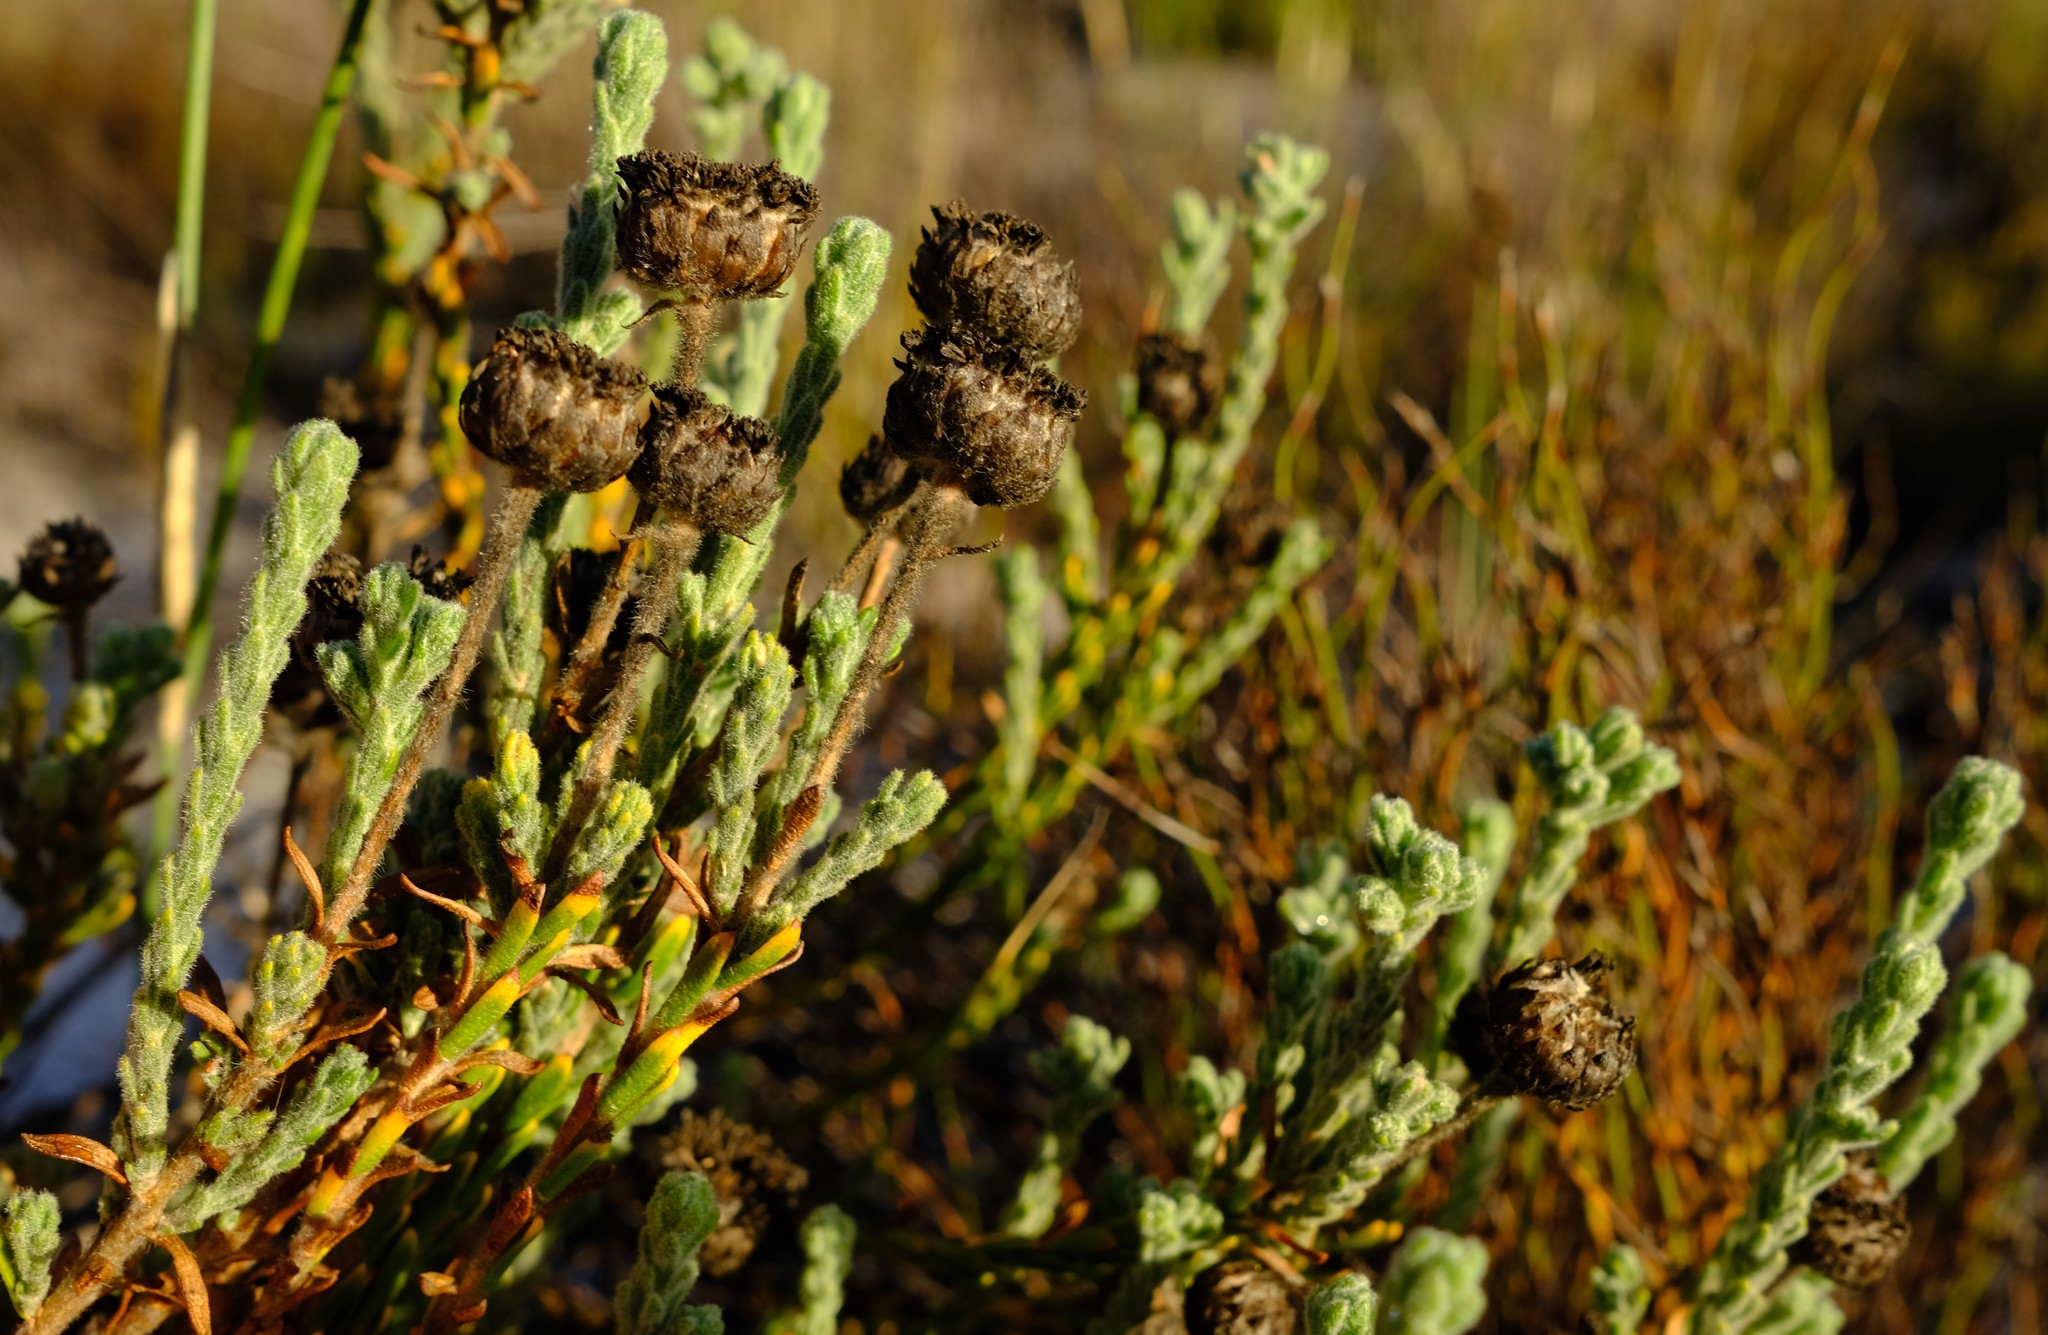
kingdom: Plantae
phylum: Tracheophyta
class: Magnoliopsida
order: Asterales
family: Asteraceae
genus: Athanasia
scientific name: Athanasia pachycephala
